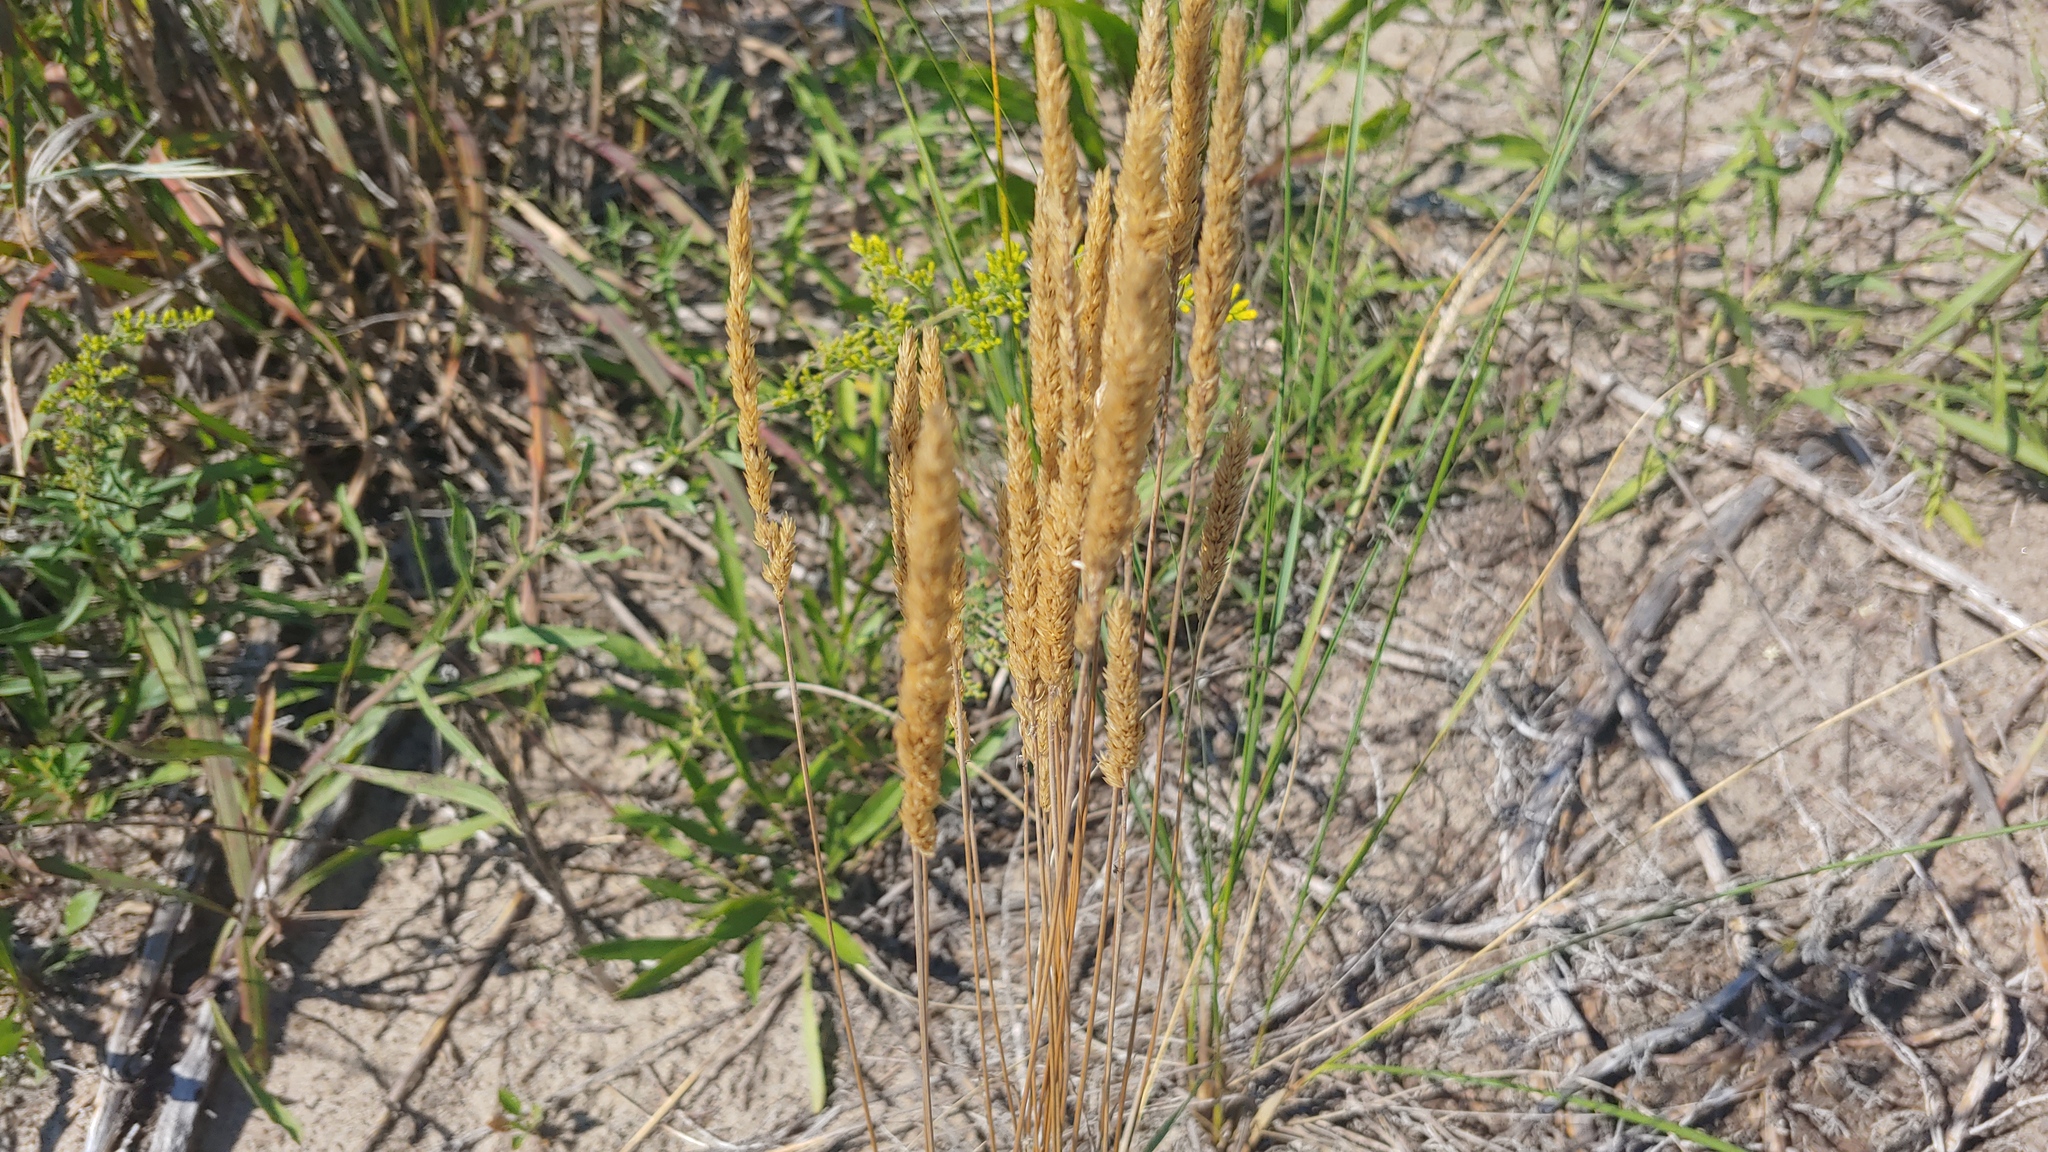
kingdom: Plantae
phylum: Tracheophyta
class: Liliopsida
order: Poales
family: Poaceae
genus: Koeleria
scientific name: Koeleria macrantha
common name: Crested hair-grass
